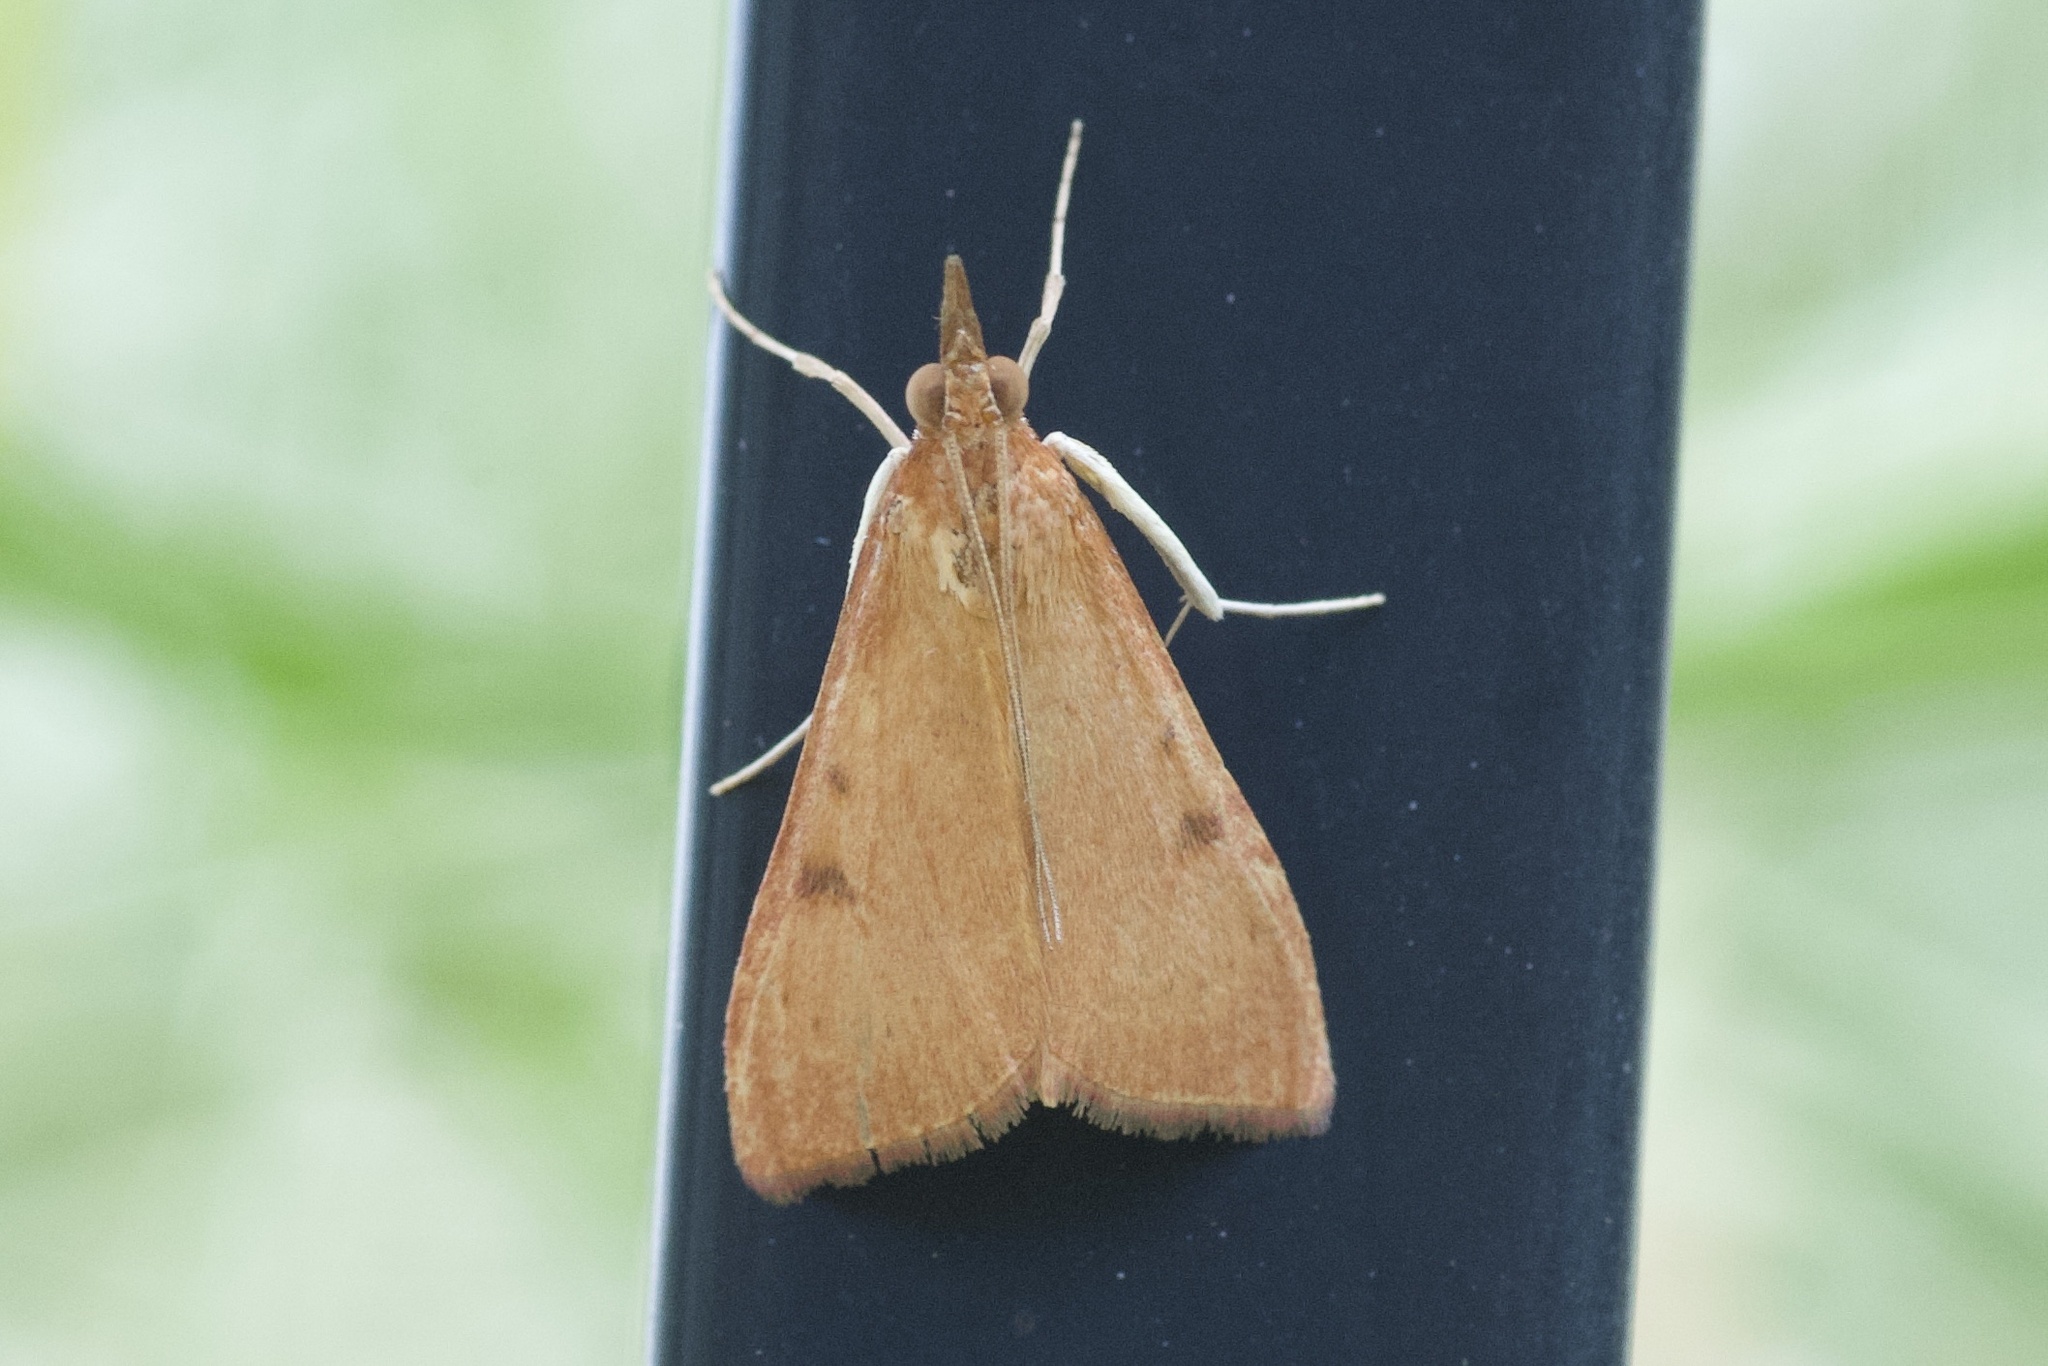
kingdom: Animalia
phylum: Arthropoda
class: Insecta
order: Lepidoptera
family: Crambidae
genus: Uresiphita
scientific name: Uresiphita reversalis
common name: Genista broom moth
